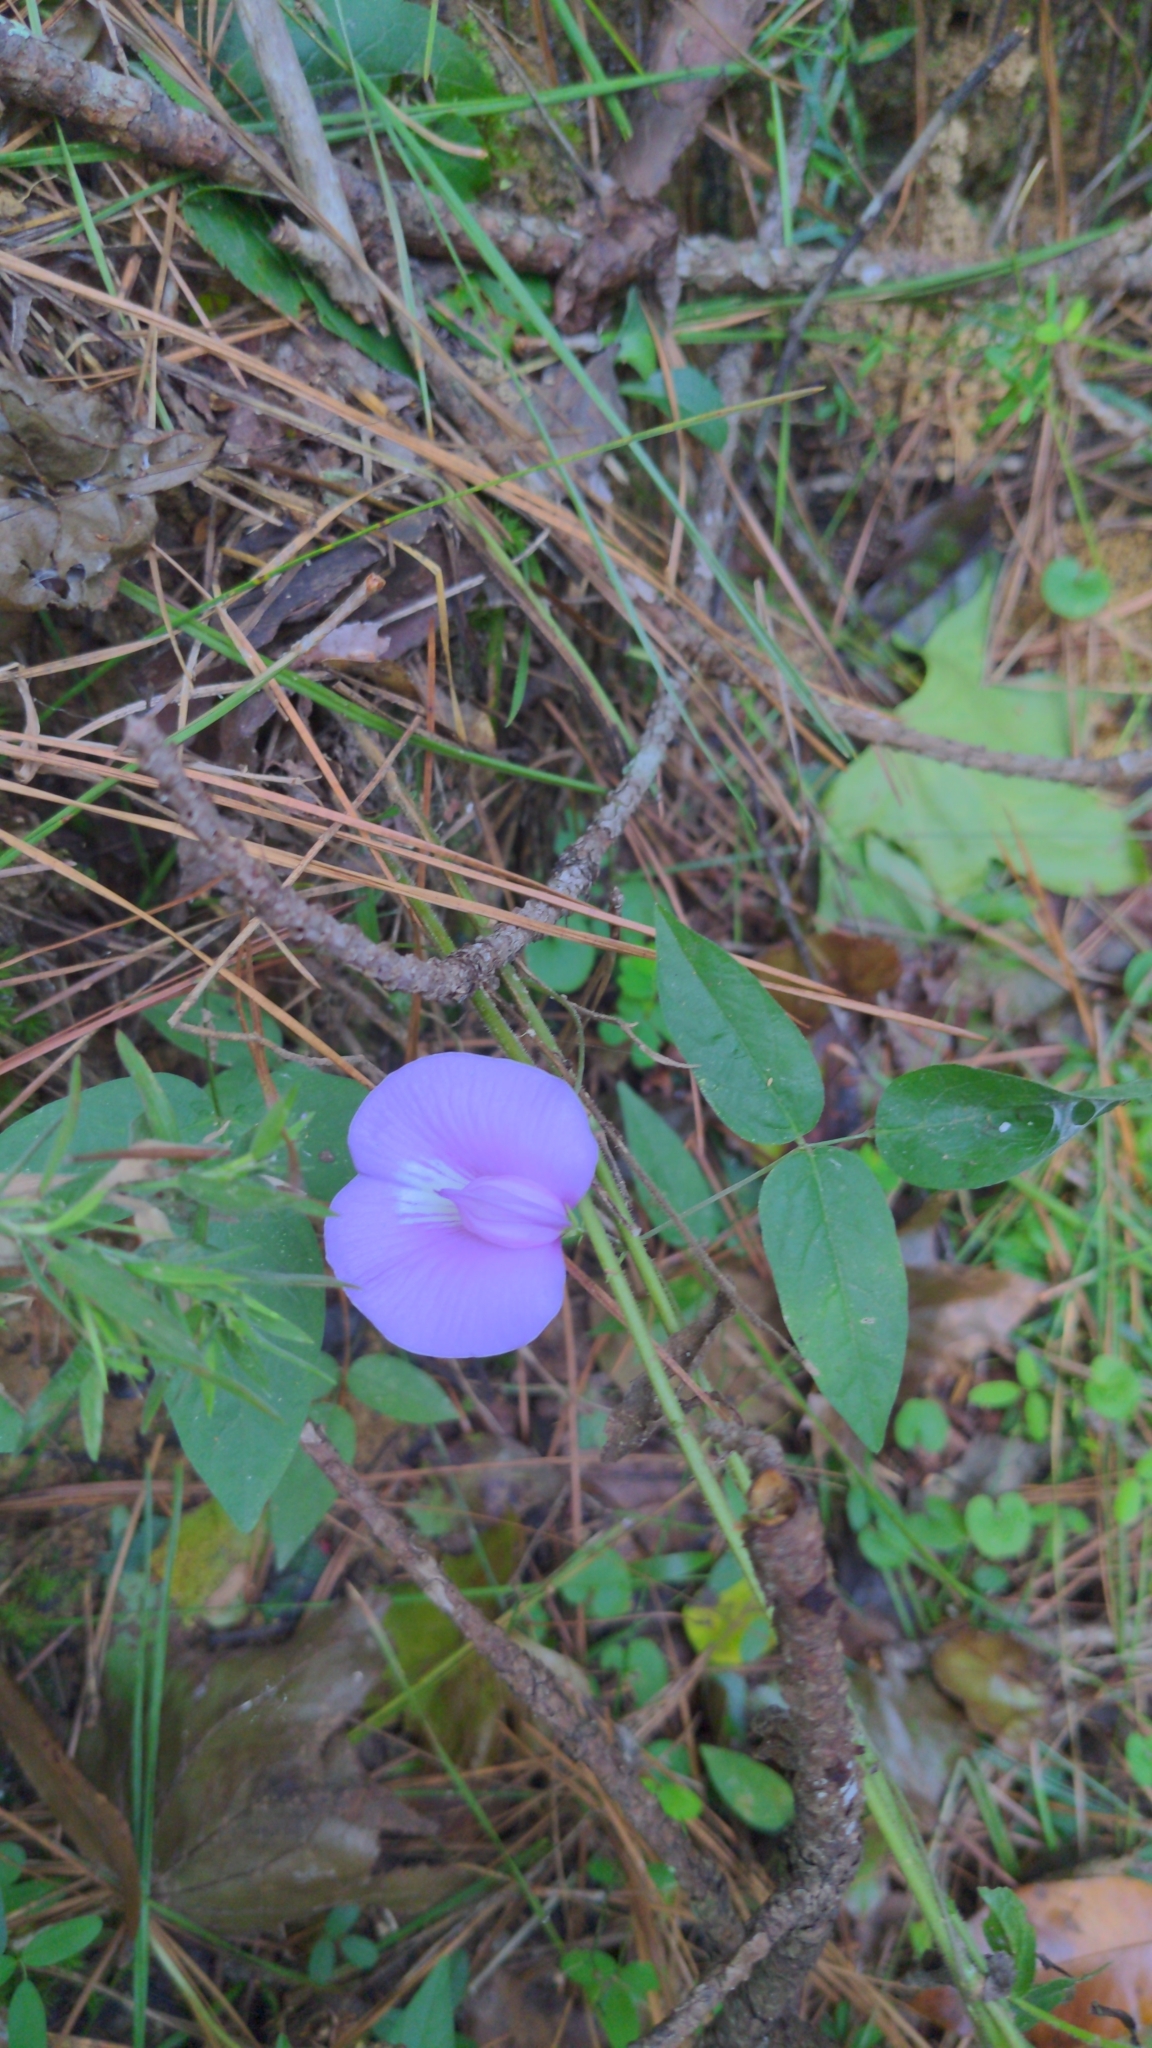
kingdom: Plantae
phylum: Tracheophyta
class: Magnoliopsida
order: Fabales
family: Fabaceae
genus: Centrosema
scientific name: Centrosema virginianum
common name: Butterfly-pea
